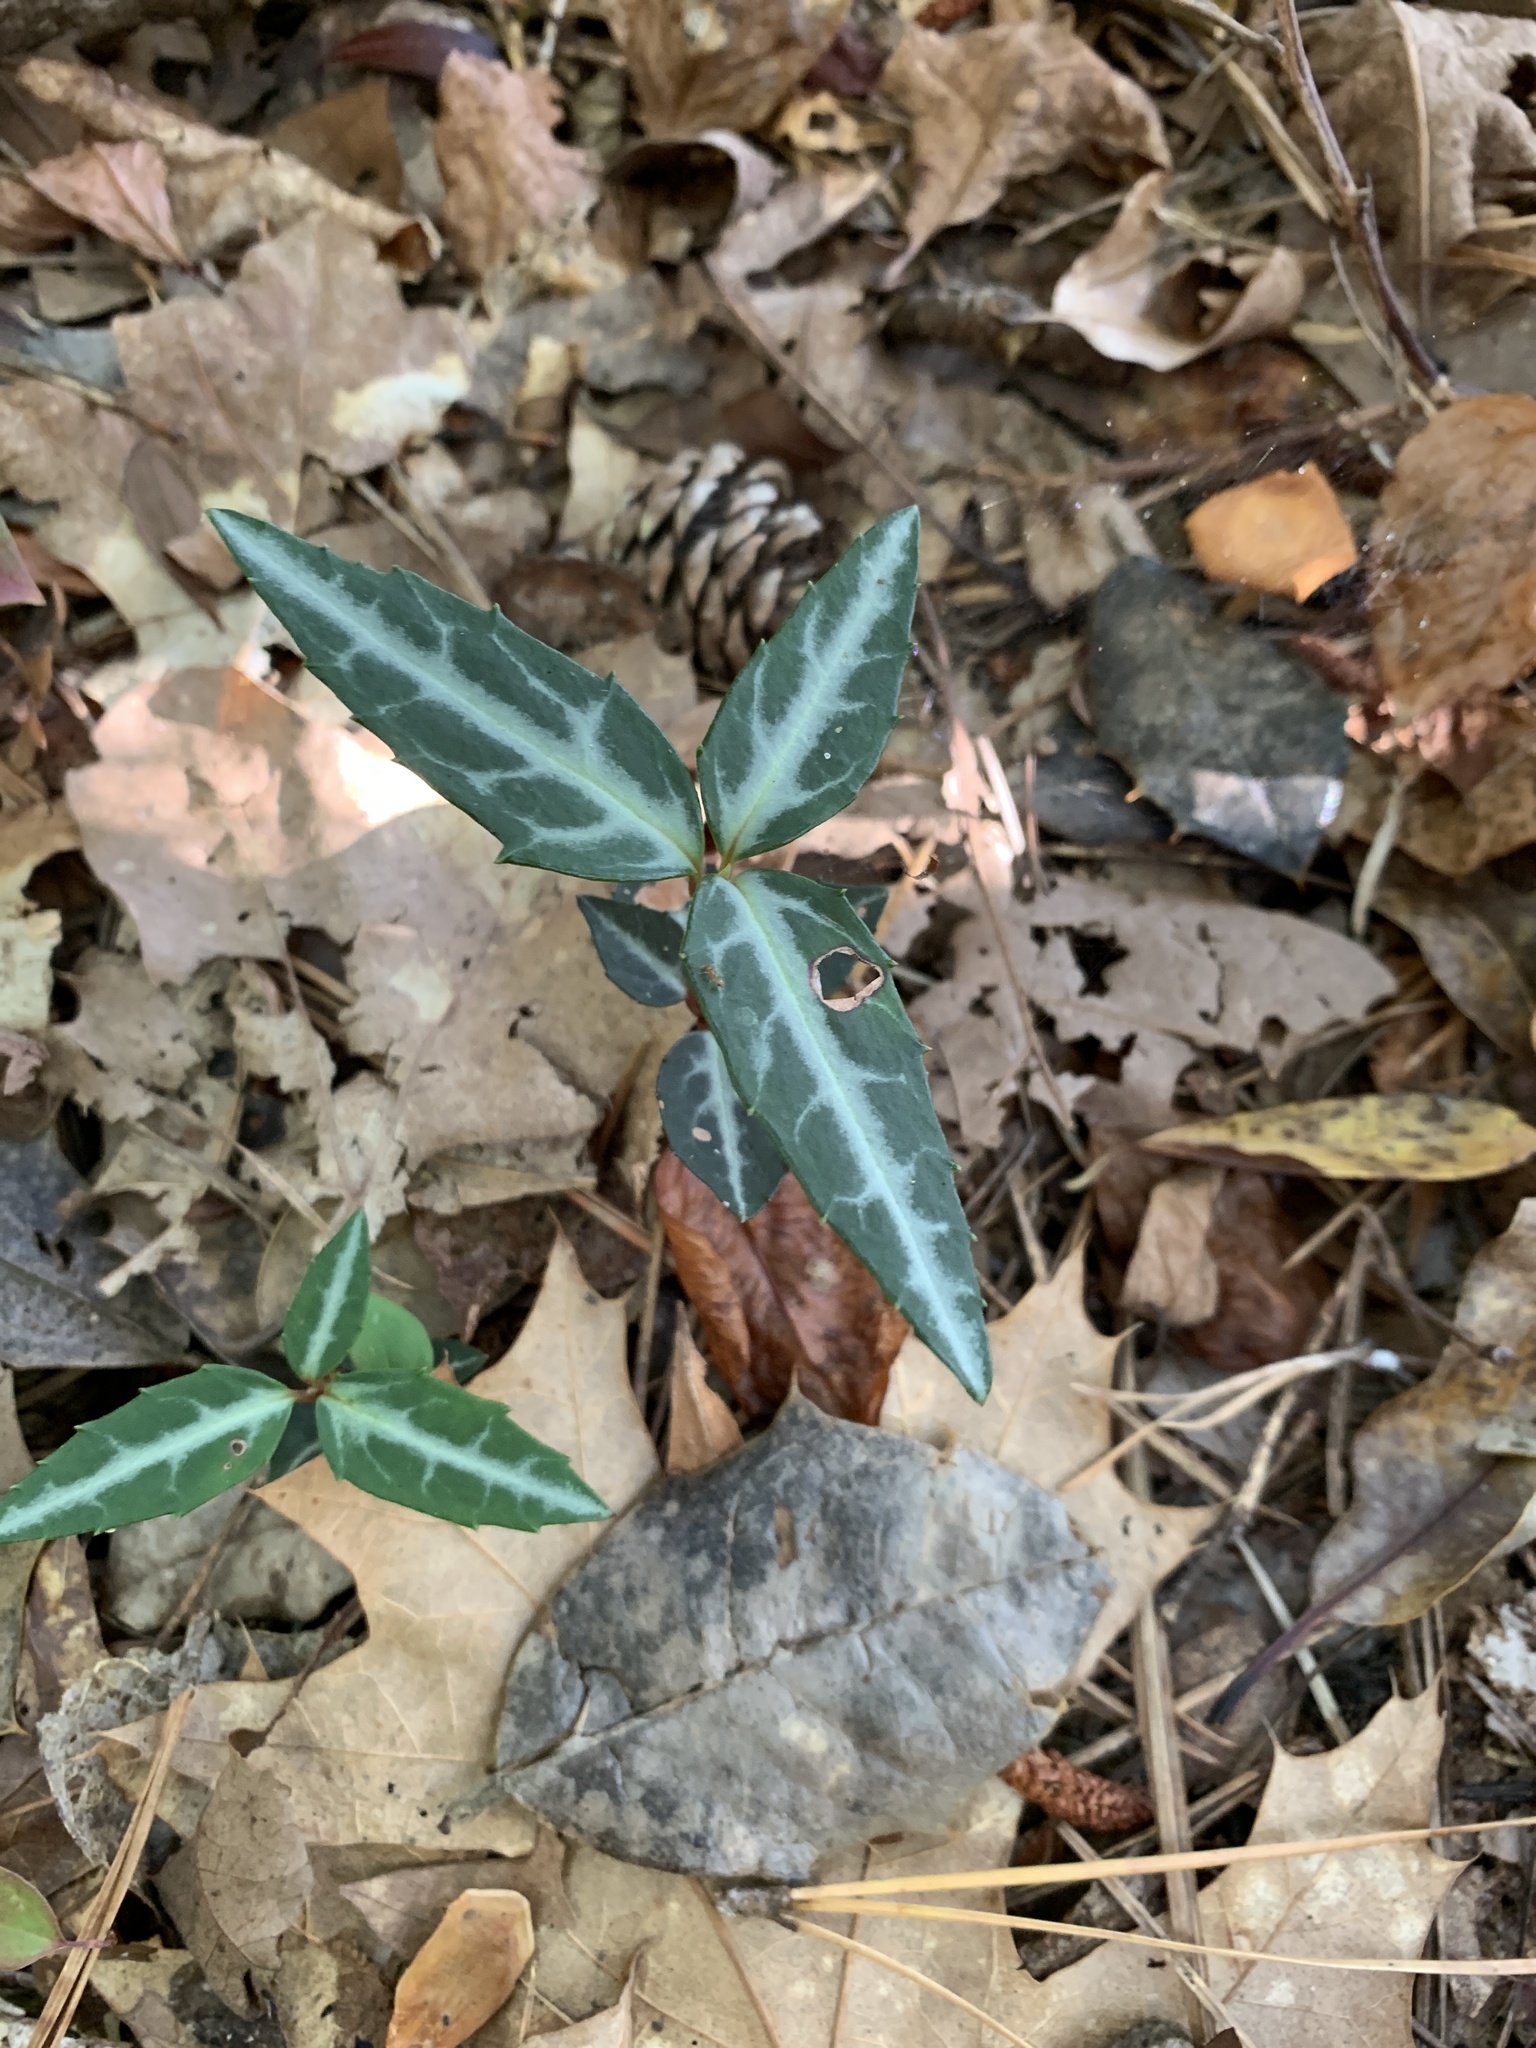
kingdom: Plantae
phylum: Tracheophyta
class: Magnoliopsida
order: Ericales
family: Ericaceae
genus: Chimaphila
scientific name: Chimaphila maculata
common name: Spotted pipsissewa
